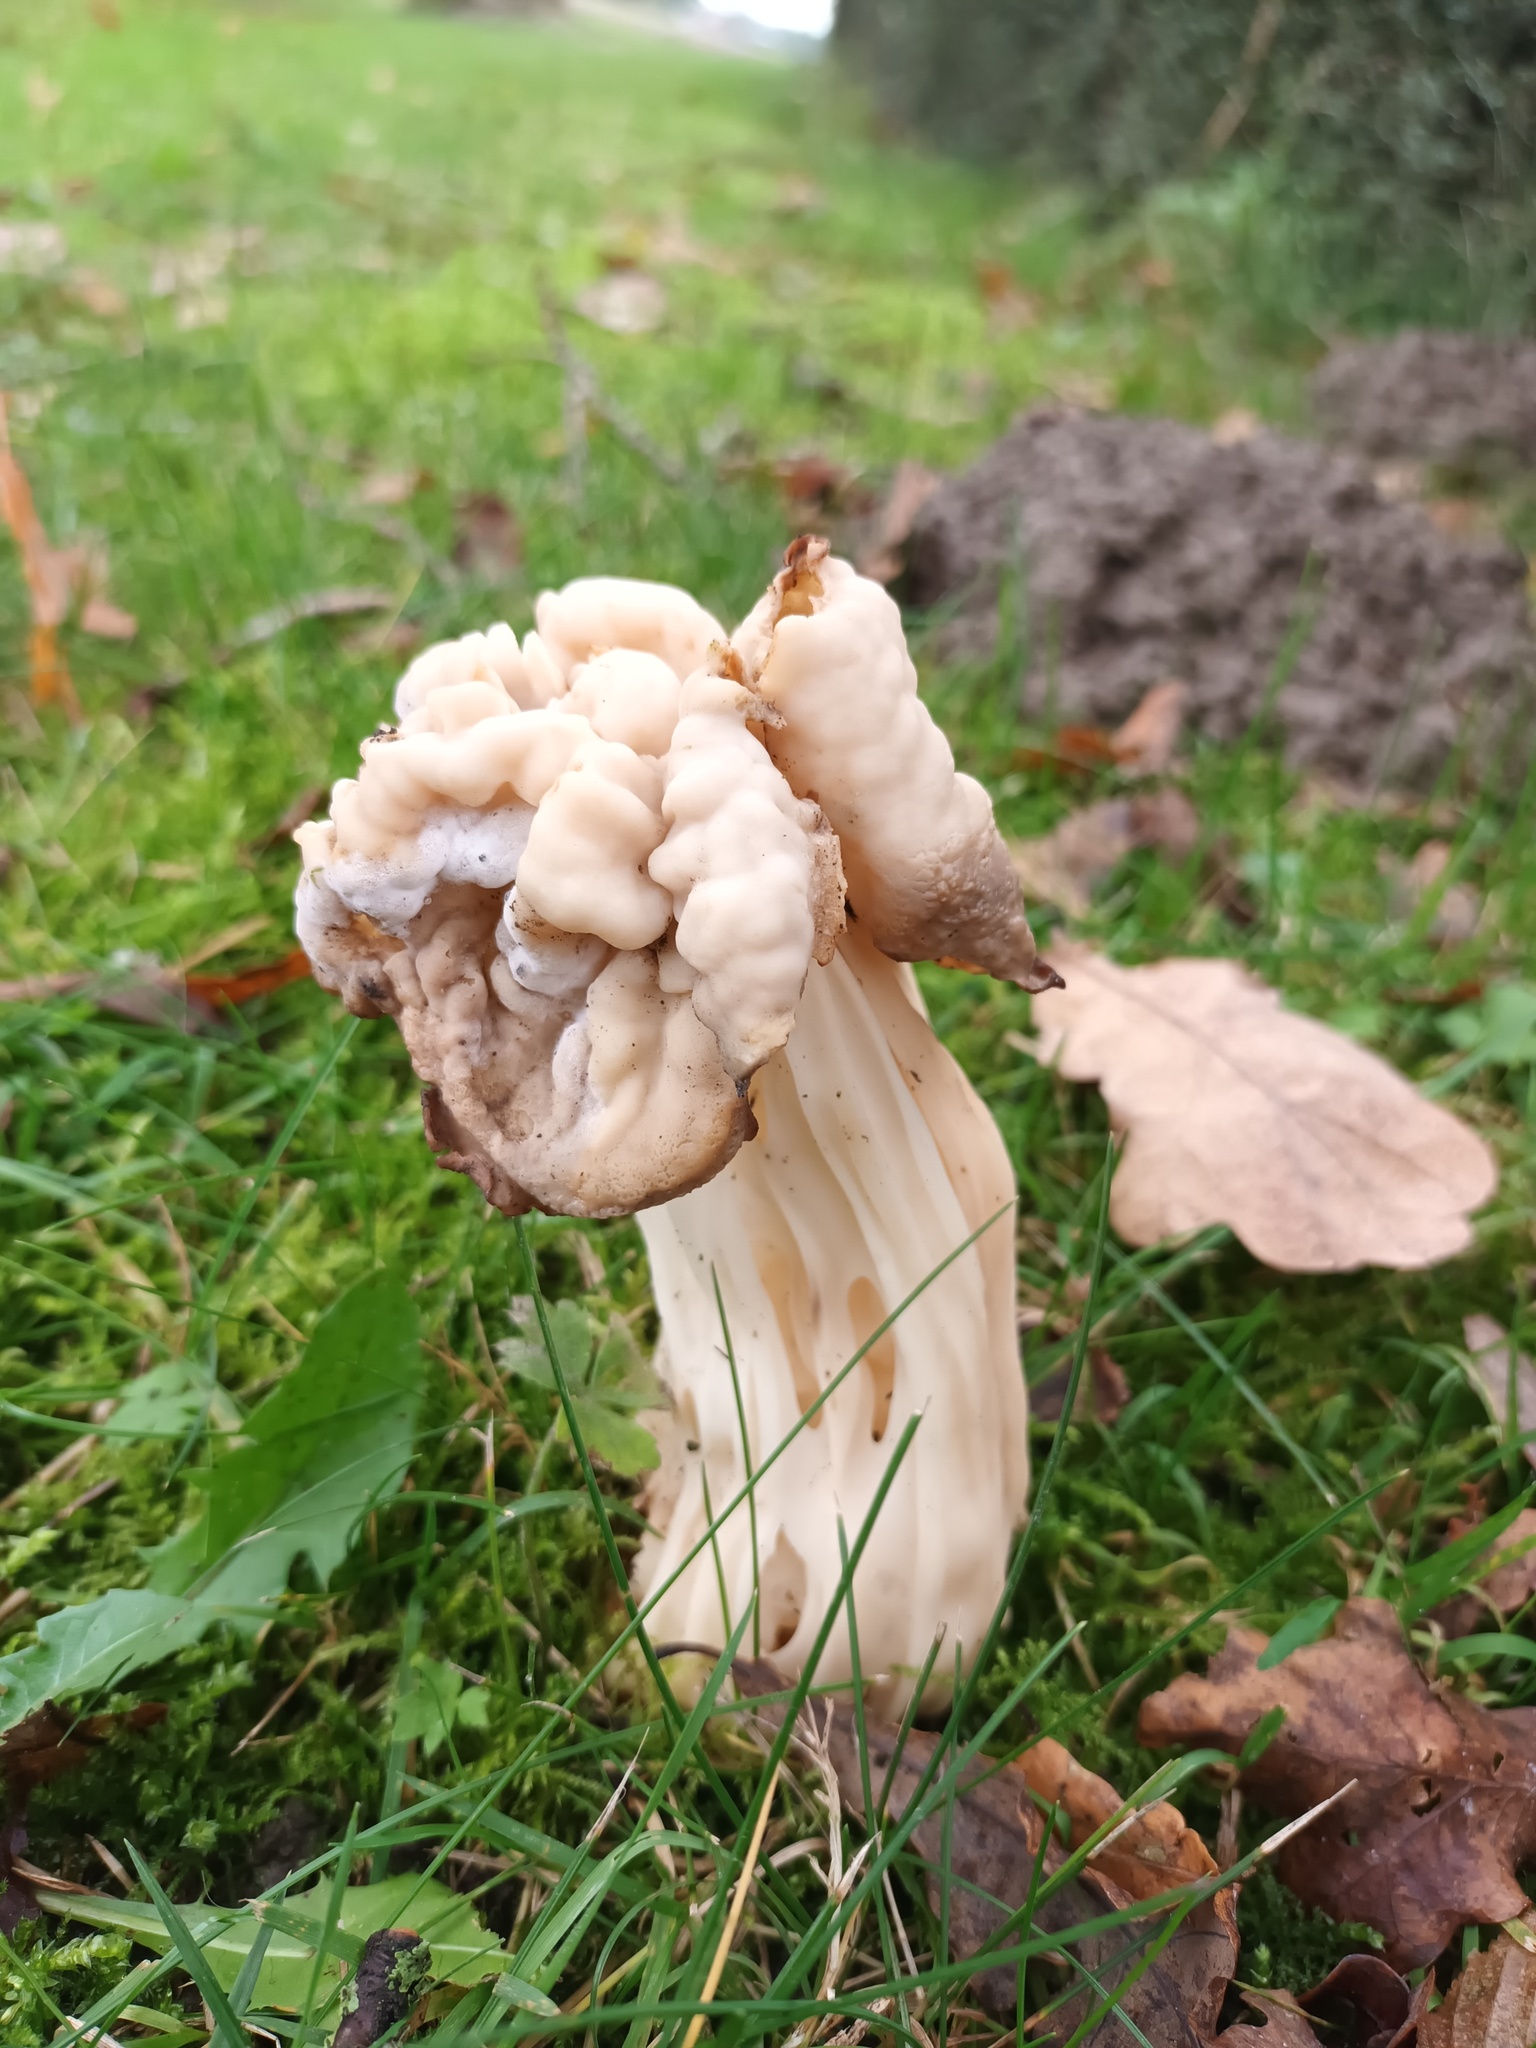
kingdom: Fungi
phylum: Ascomycota
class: Pezizomycetes
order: Pezizales
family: Helvellaceae
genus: Helvella
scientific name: Helvella crispa
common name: White saddle
